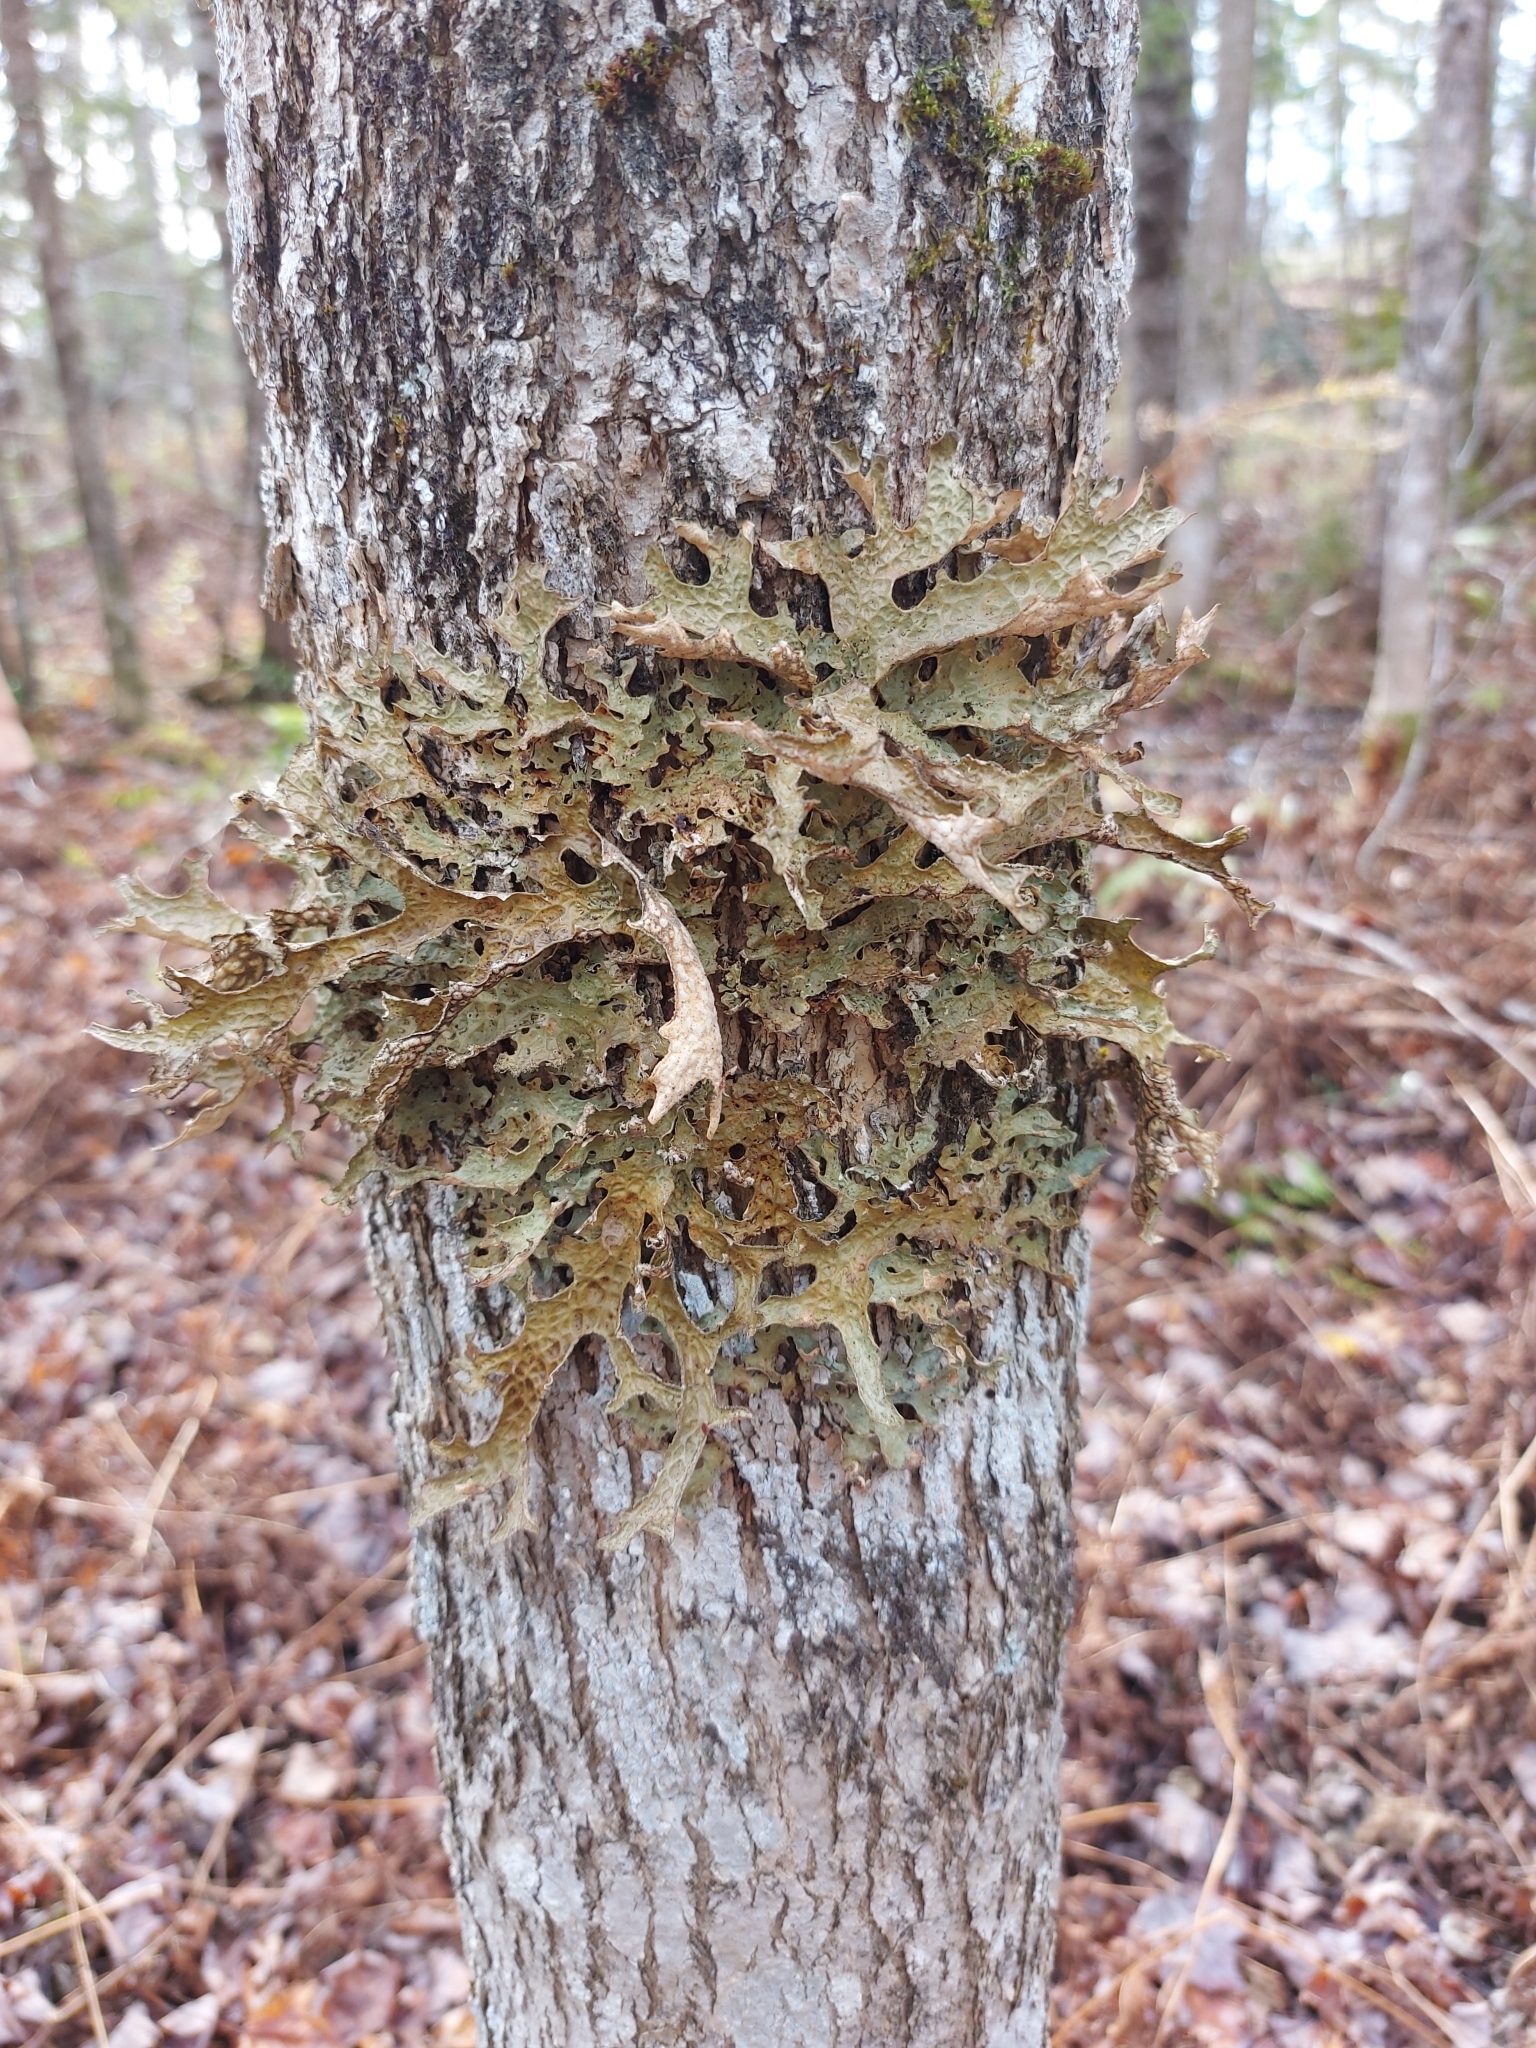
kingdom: Fungi
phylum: Ascomycota
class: Lecanoromycetes
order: Peltigerales
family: Lobariaceae
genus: Lobaria
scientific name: Lobaria pulmonaria
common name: Lungwort
